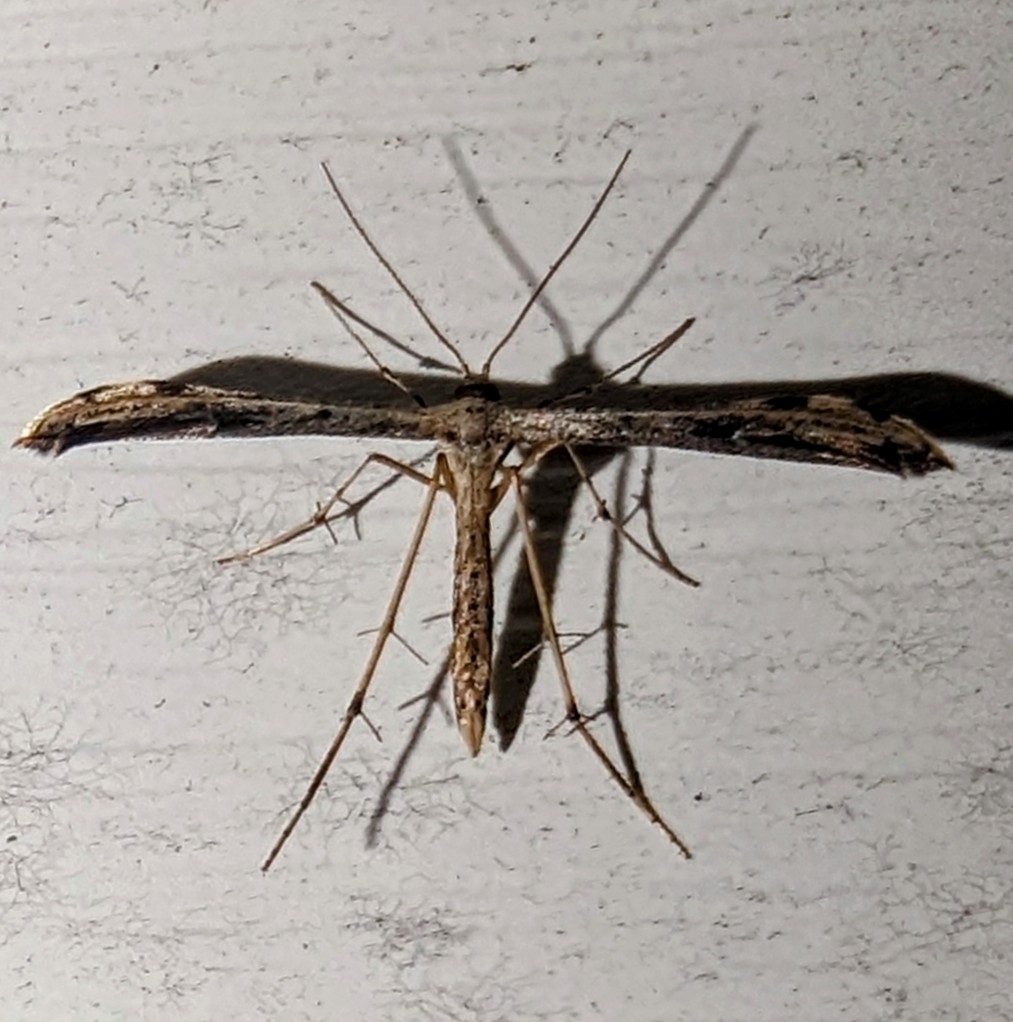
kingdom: Animalia
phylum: Arthropoda
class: Insecta
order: Lepidoptera
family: Pterophoridae
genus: Adaina
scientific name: Adaina ambrosiae
